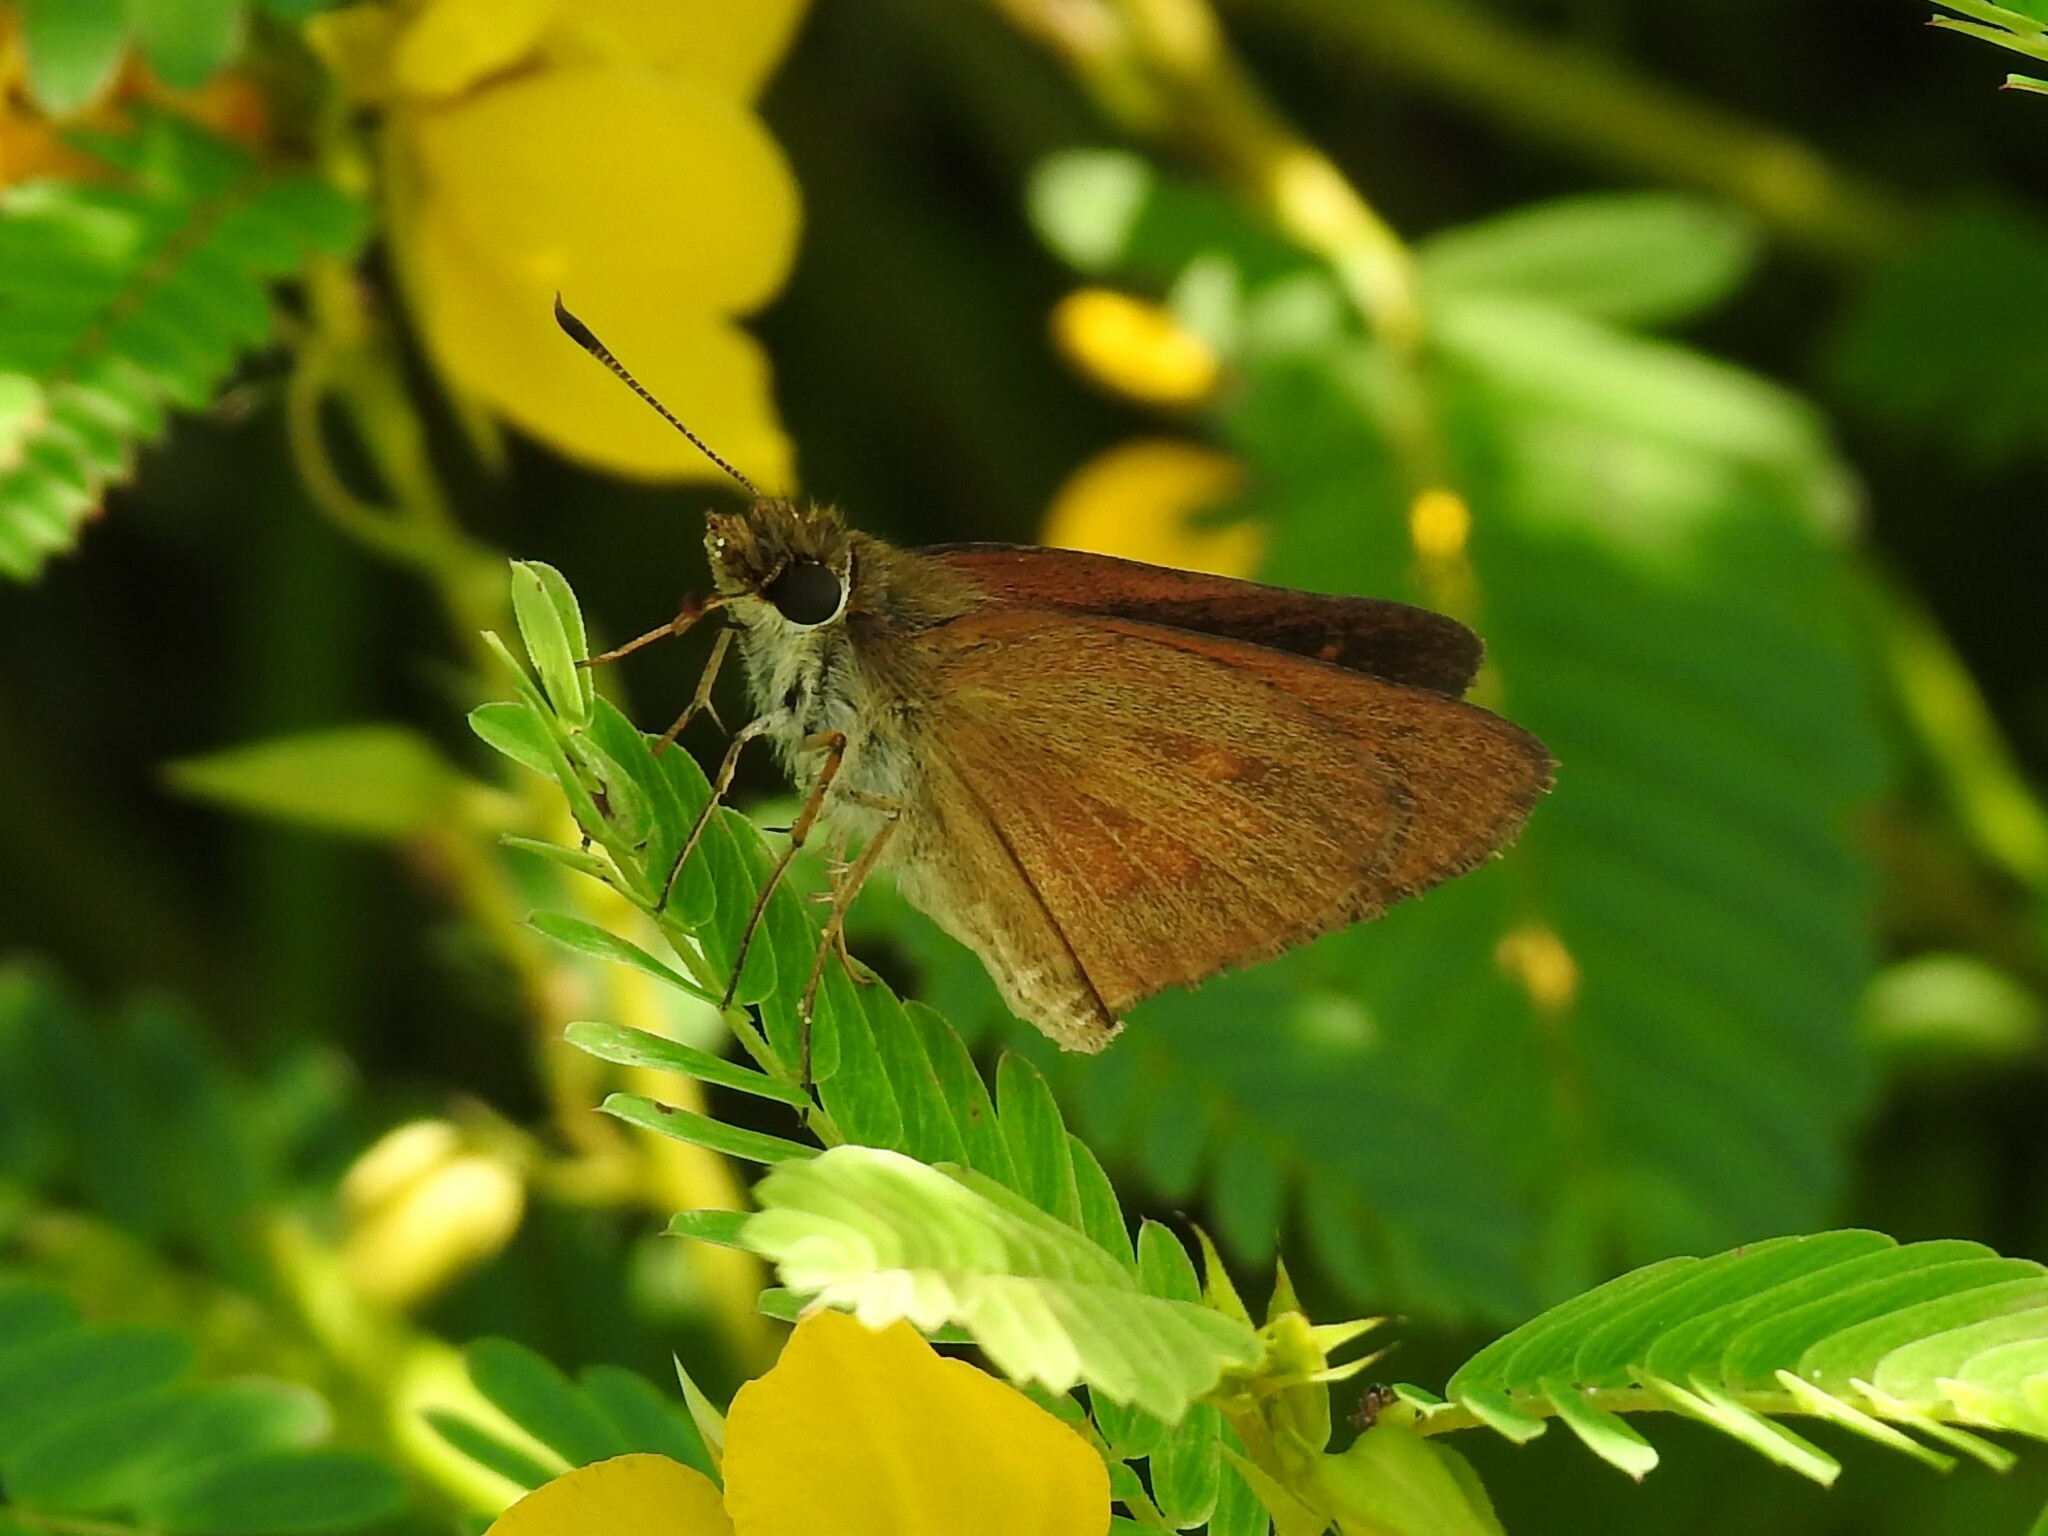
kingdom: Animalia
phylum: Arthropoda
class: Insecta
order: Lepidoptera
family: Hesperiidae
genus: Poanes
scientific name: Poanes viator
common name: Broad-winged skipper
